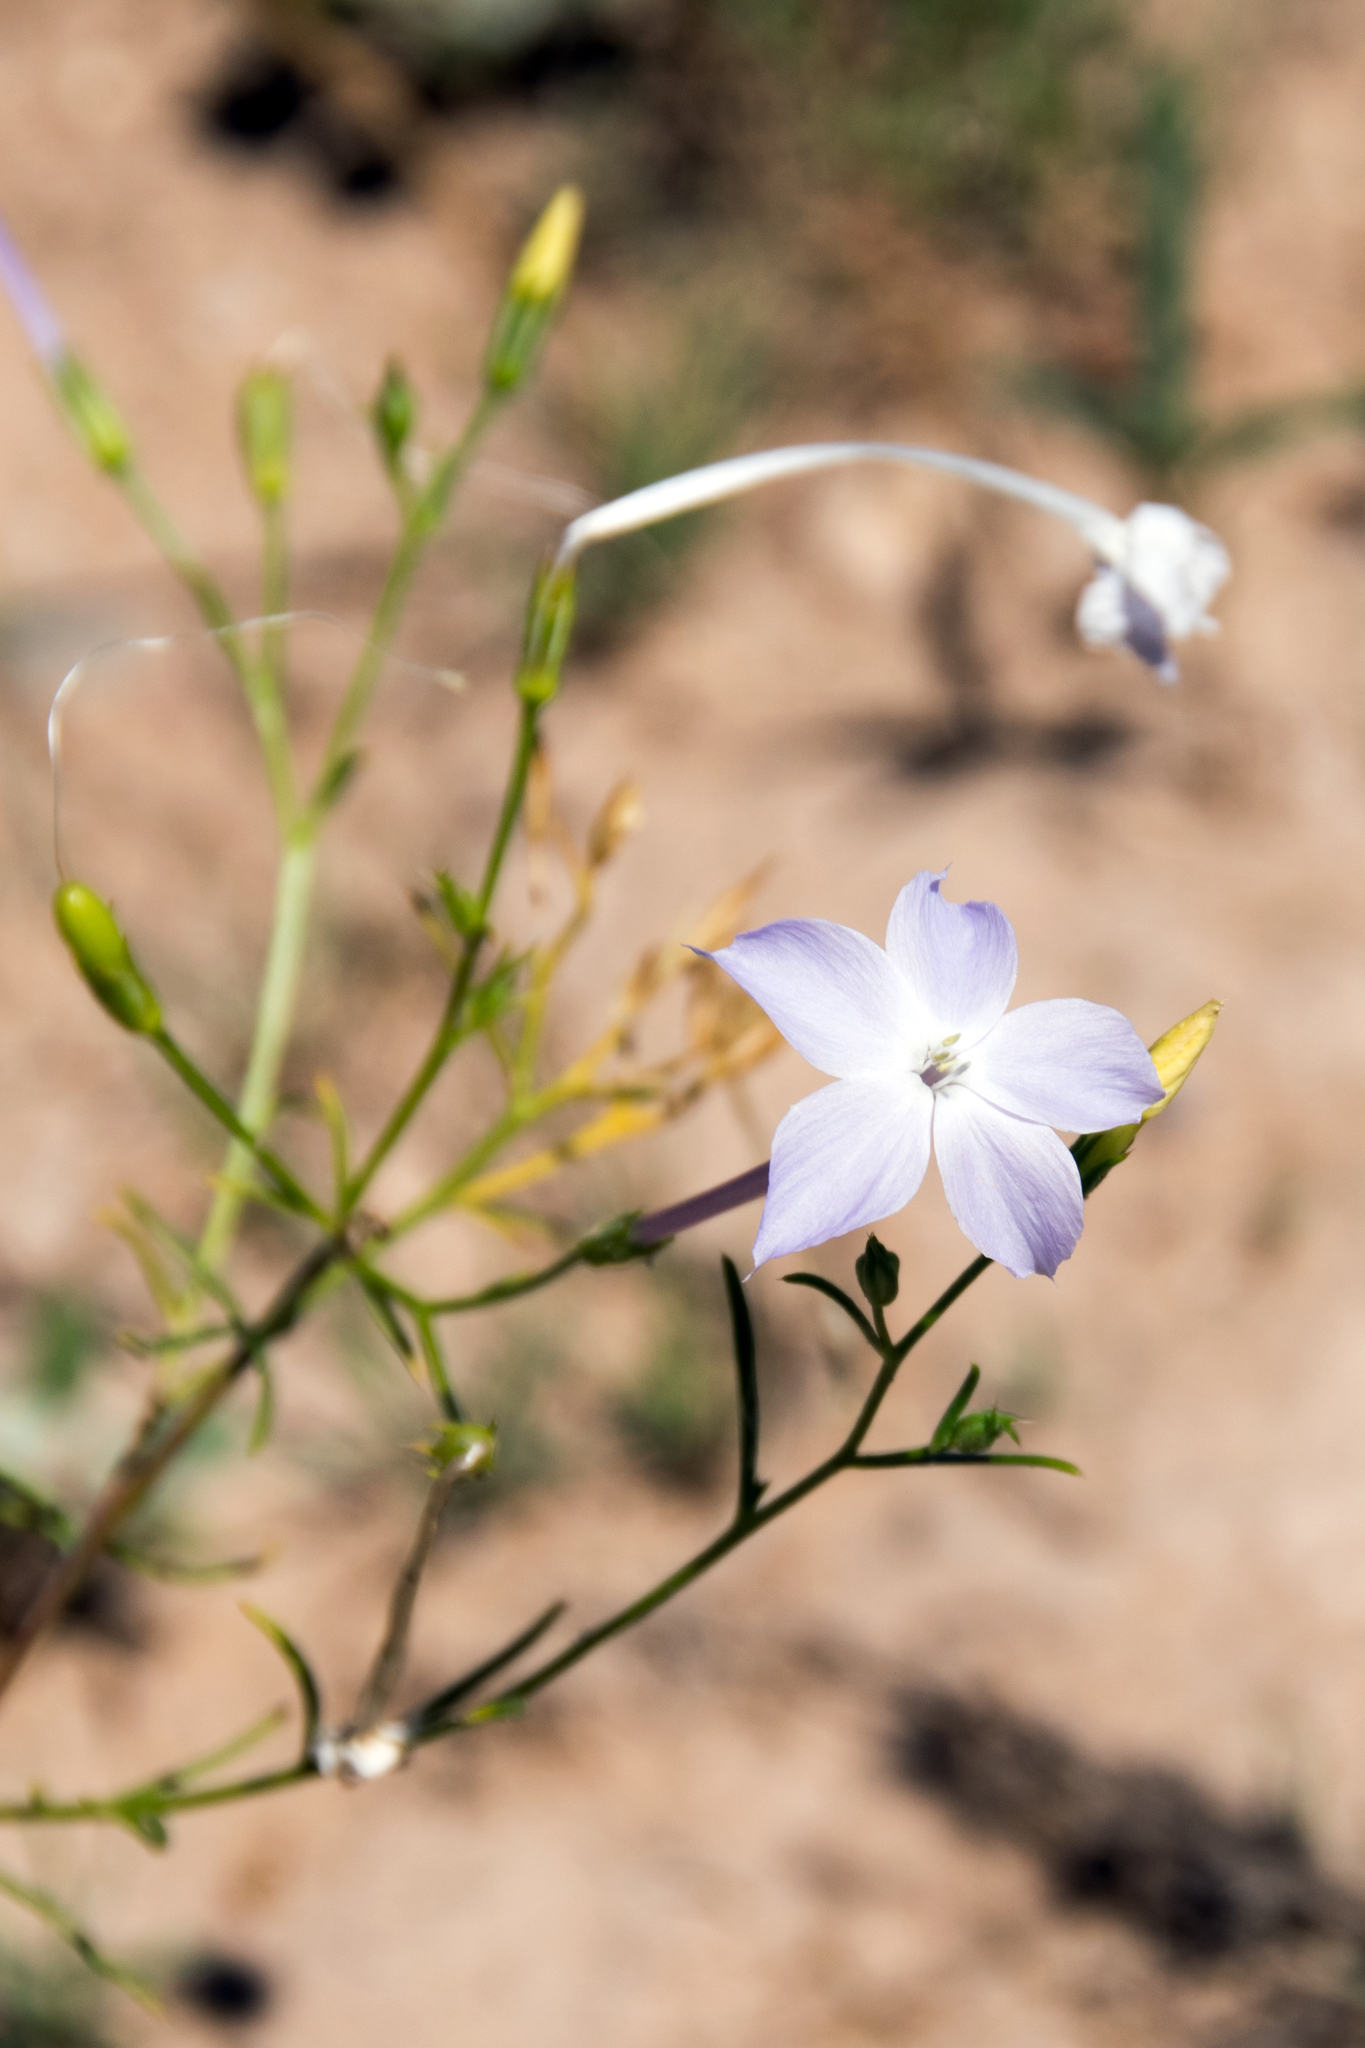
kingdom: Plantae
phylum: Tracheophyta
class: Magnoliopsida
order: Ericales
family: Polemoniaceae
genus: Ipomopsis
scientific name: Ipomopsis longiflora
